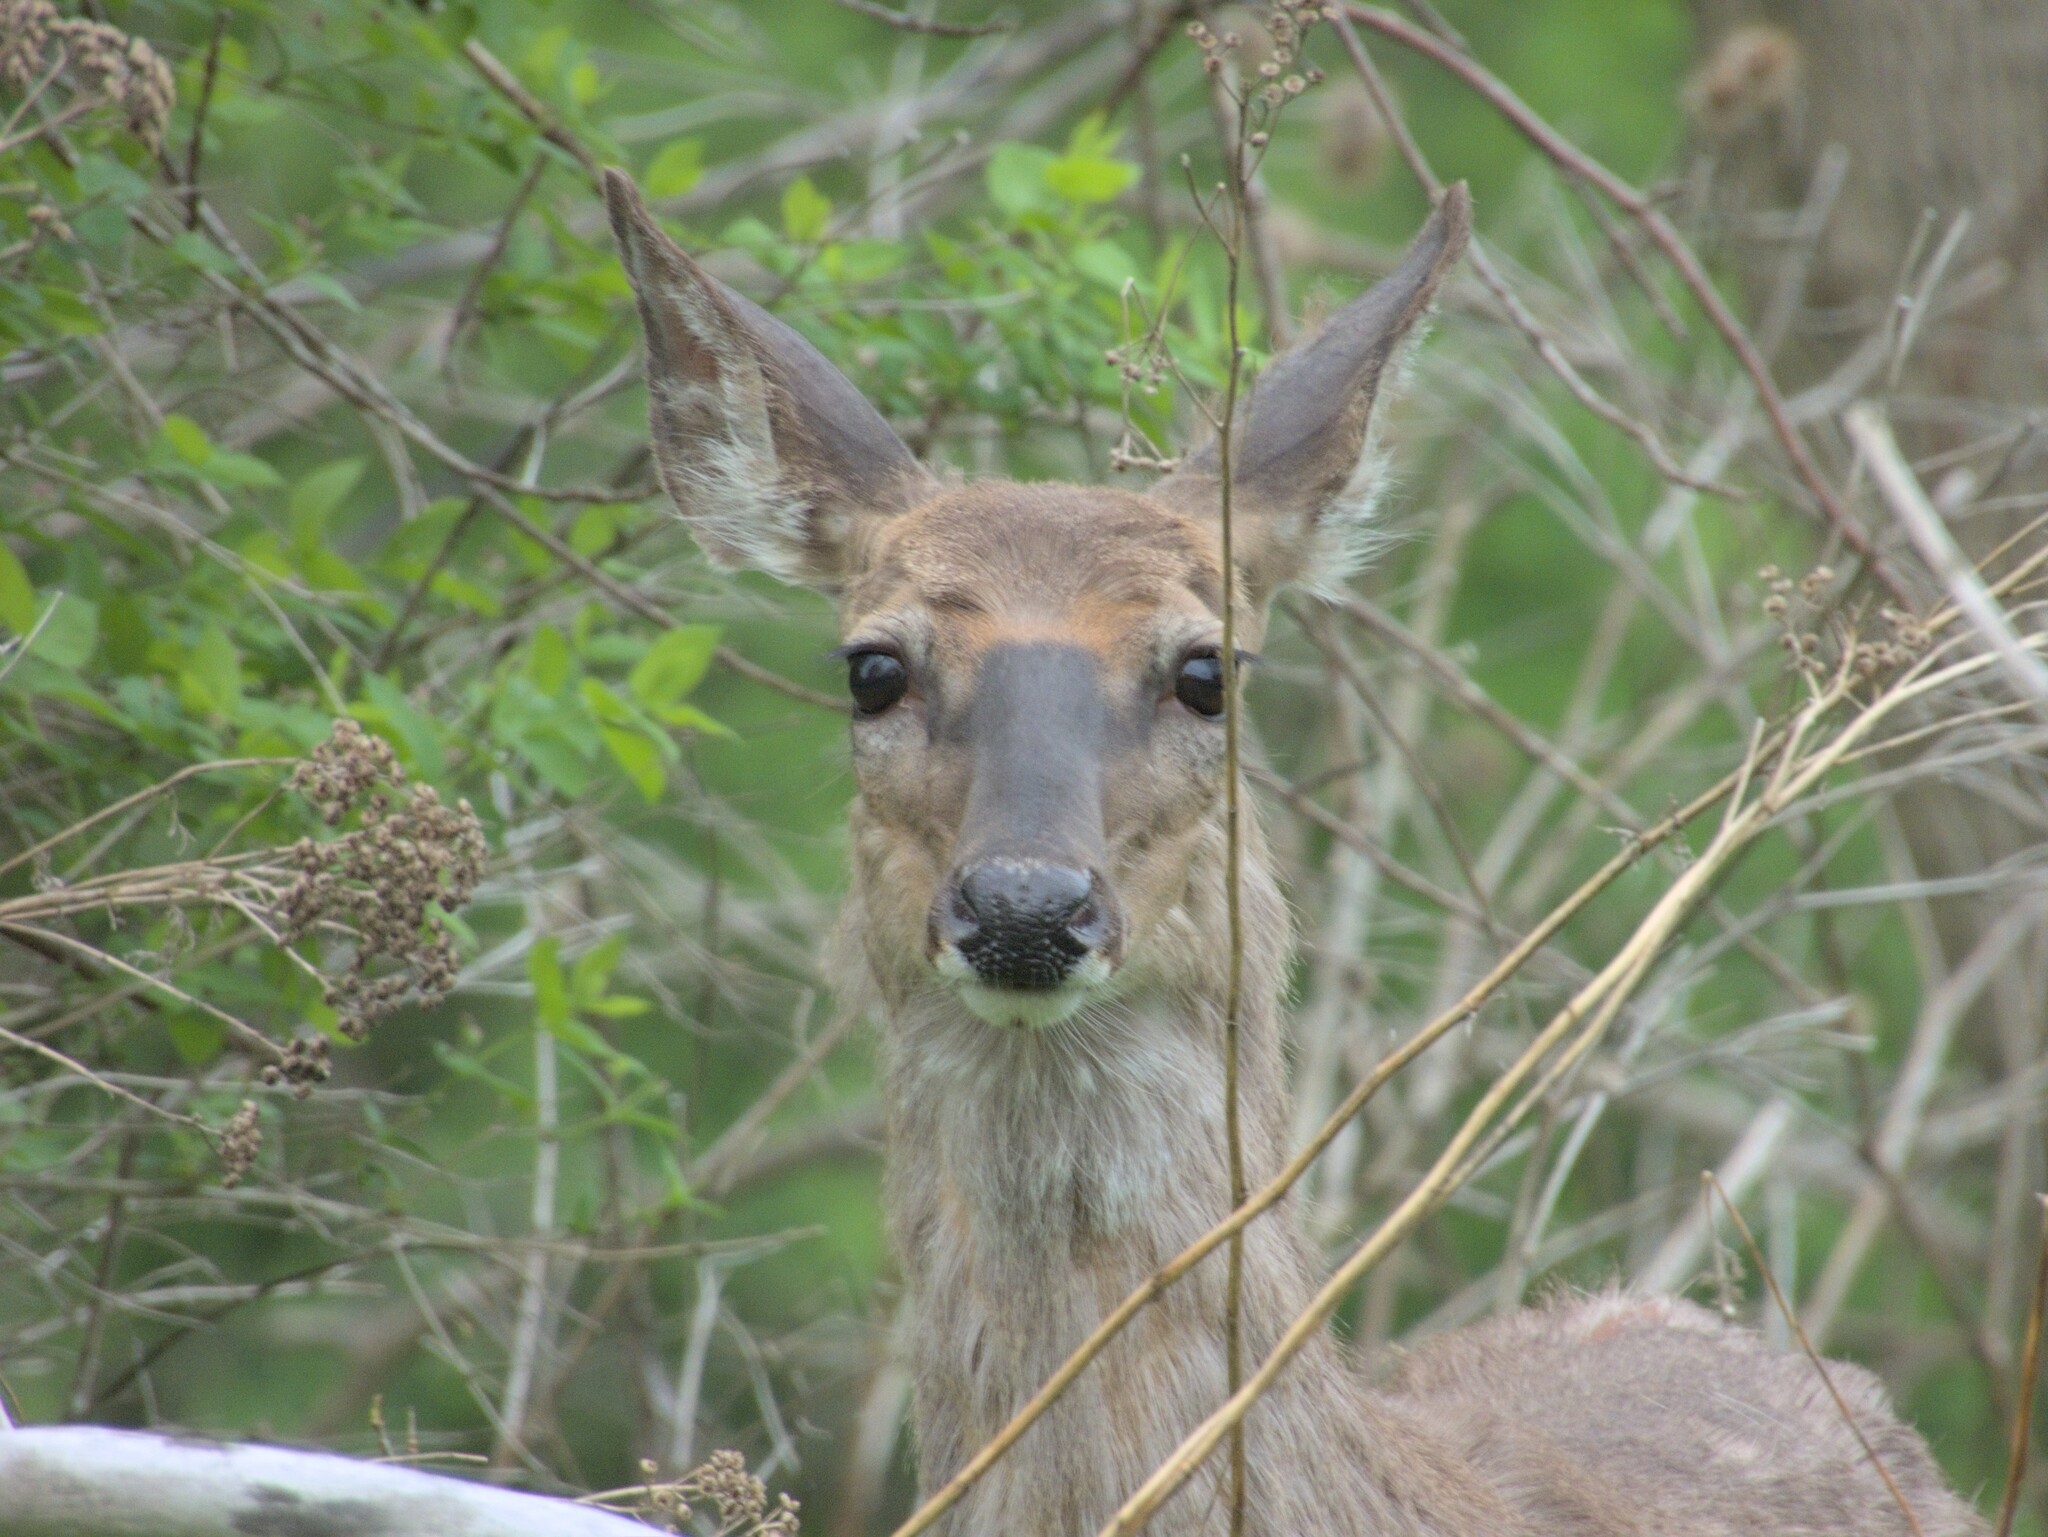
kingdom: Animalia
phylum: Chordata
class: Mammalia
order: Artiodactyla
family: Cervidae
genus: Odocoileus
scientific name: Odocoileus virginianus
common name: White-tailed deer
